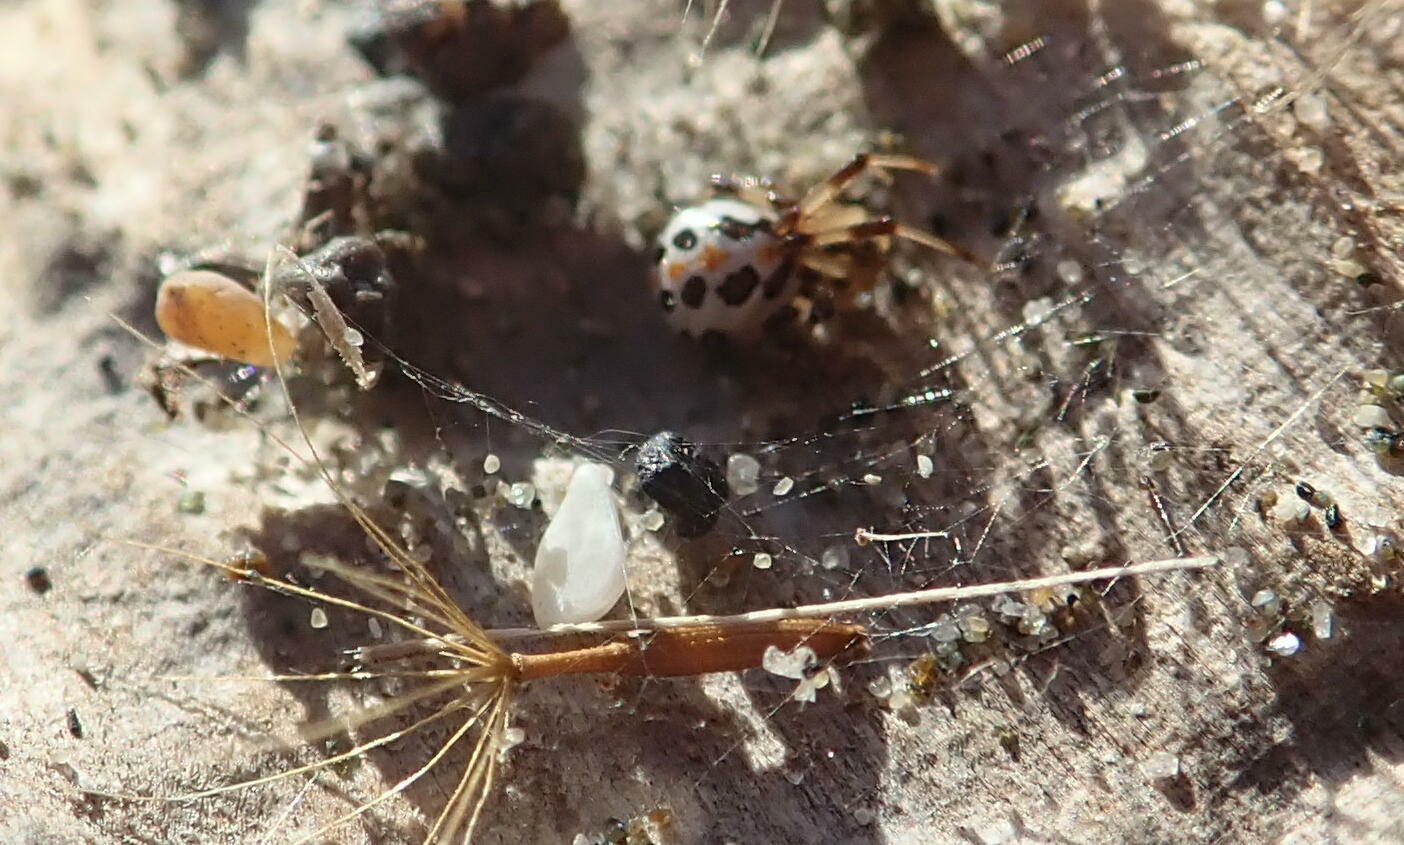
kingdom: Animalia
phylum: Arthropoda
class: Arachnida
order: Araneae
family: Theridiidae
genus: Latrodectus
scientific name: Latrodectus katipo
